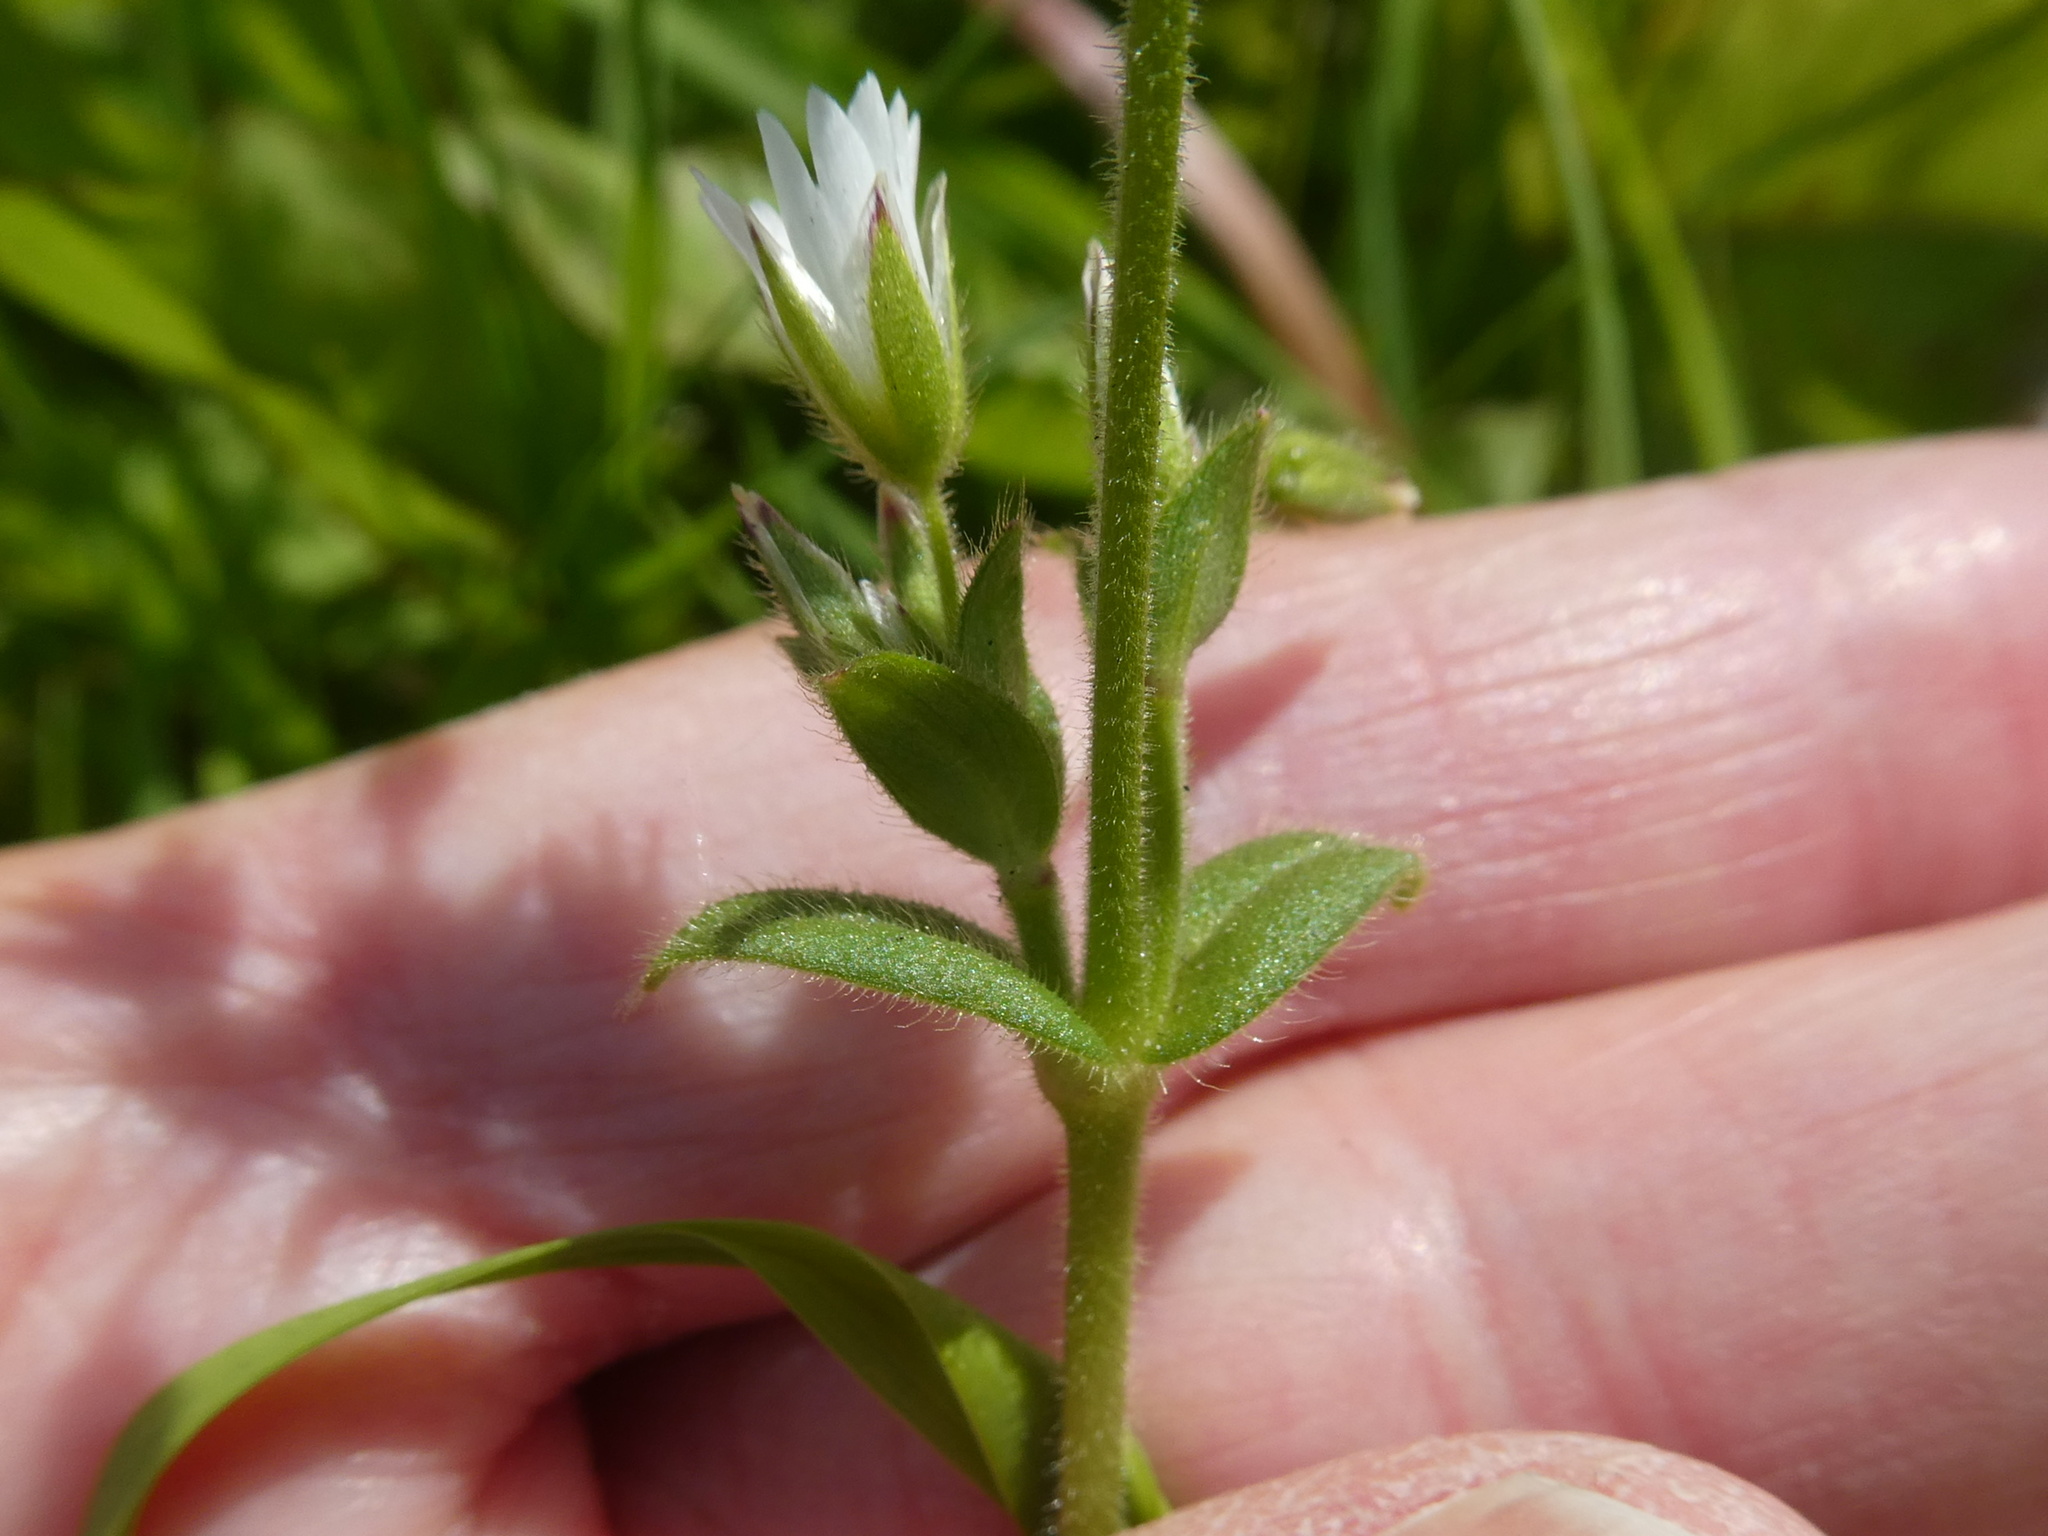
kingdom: Plantae
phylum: Tracheophyta
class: Magnoliopsida
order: Caryophyllales
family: Caryophyllaceae
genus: Cerastium
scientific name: Cerastium fontanum
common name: Common mouse-ear
